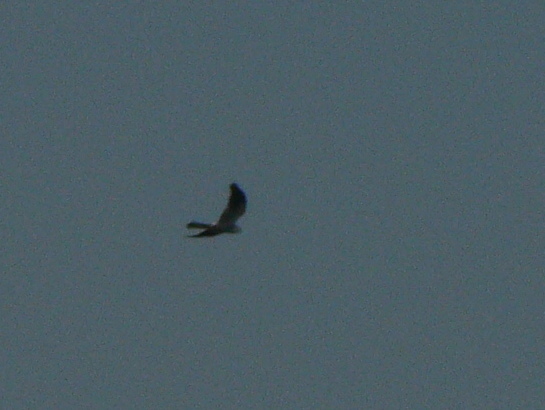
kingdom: Animalia
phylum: Chordata
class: Aves
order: Accipitriformes
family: Accipitridae
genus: Circus
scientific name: Circus pygargus
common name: Montagu's harrier
